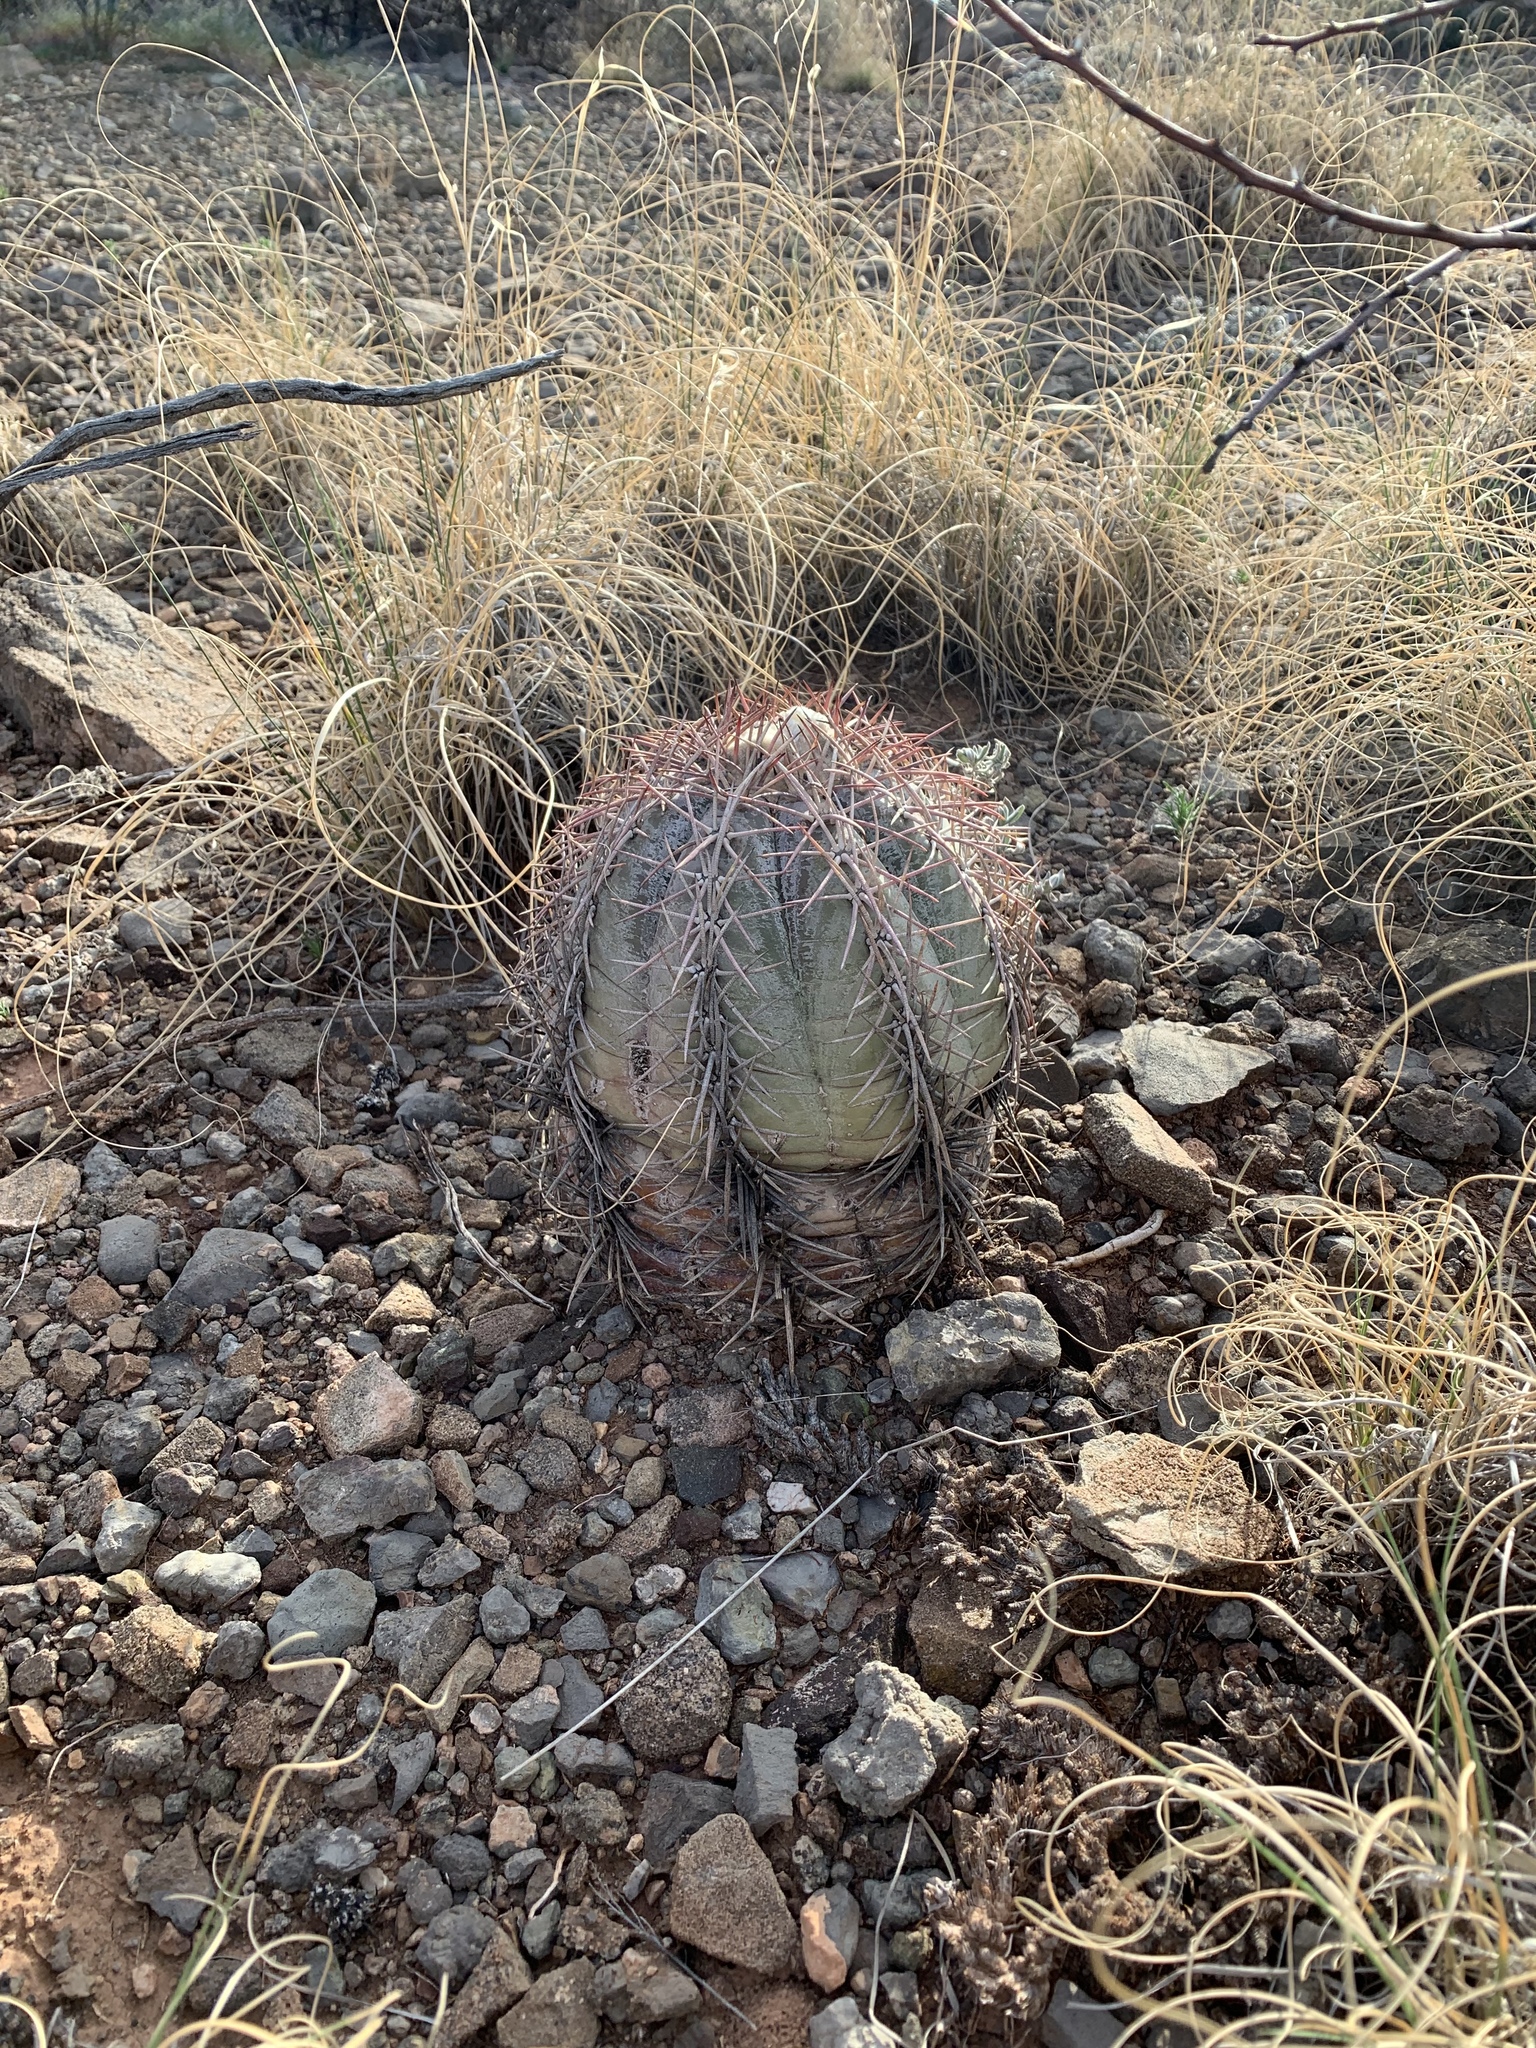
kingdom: Plantae
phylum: Tracheophyta
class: Magnoliopsida
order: Caryophyllales
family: Cactaceae
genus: Echinocactus
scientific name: Echinocactus horizonthalonius
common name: Devilshead
